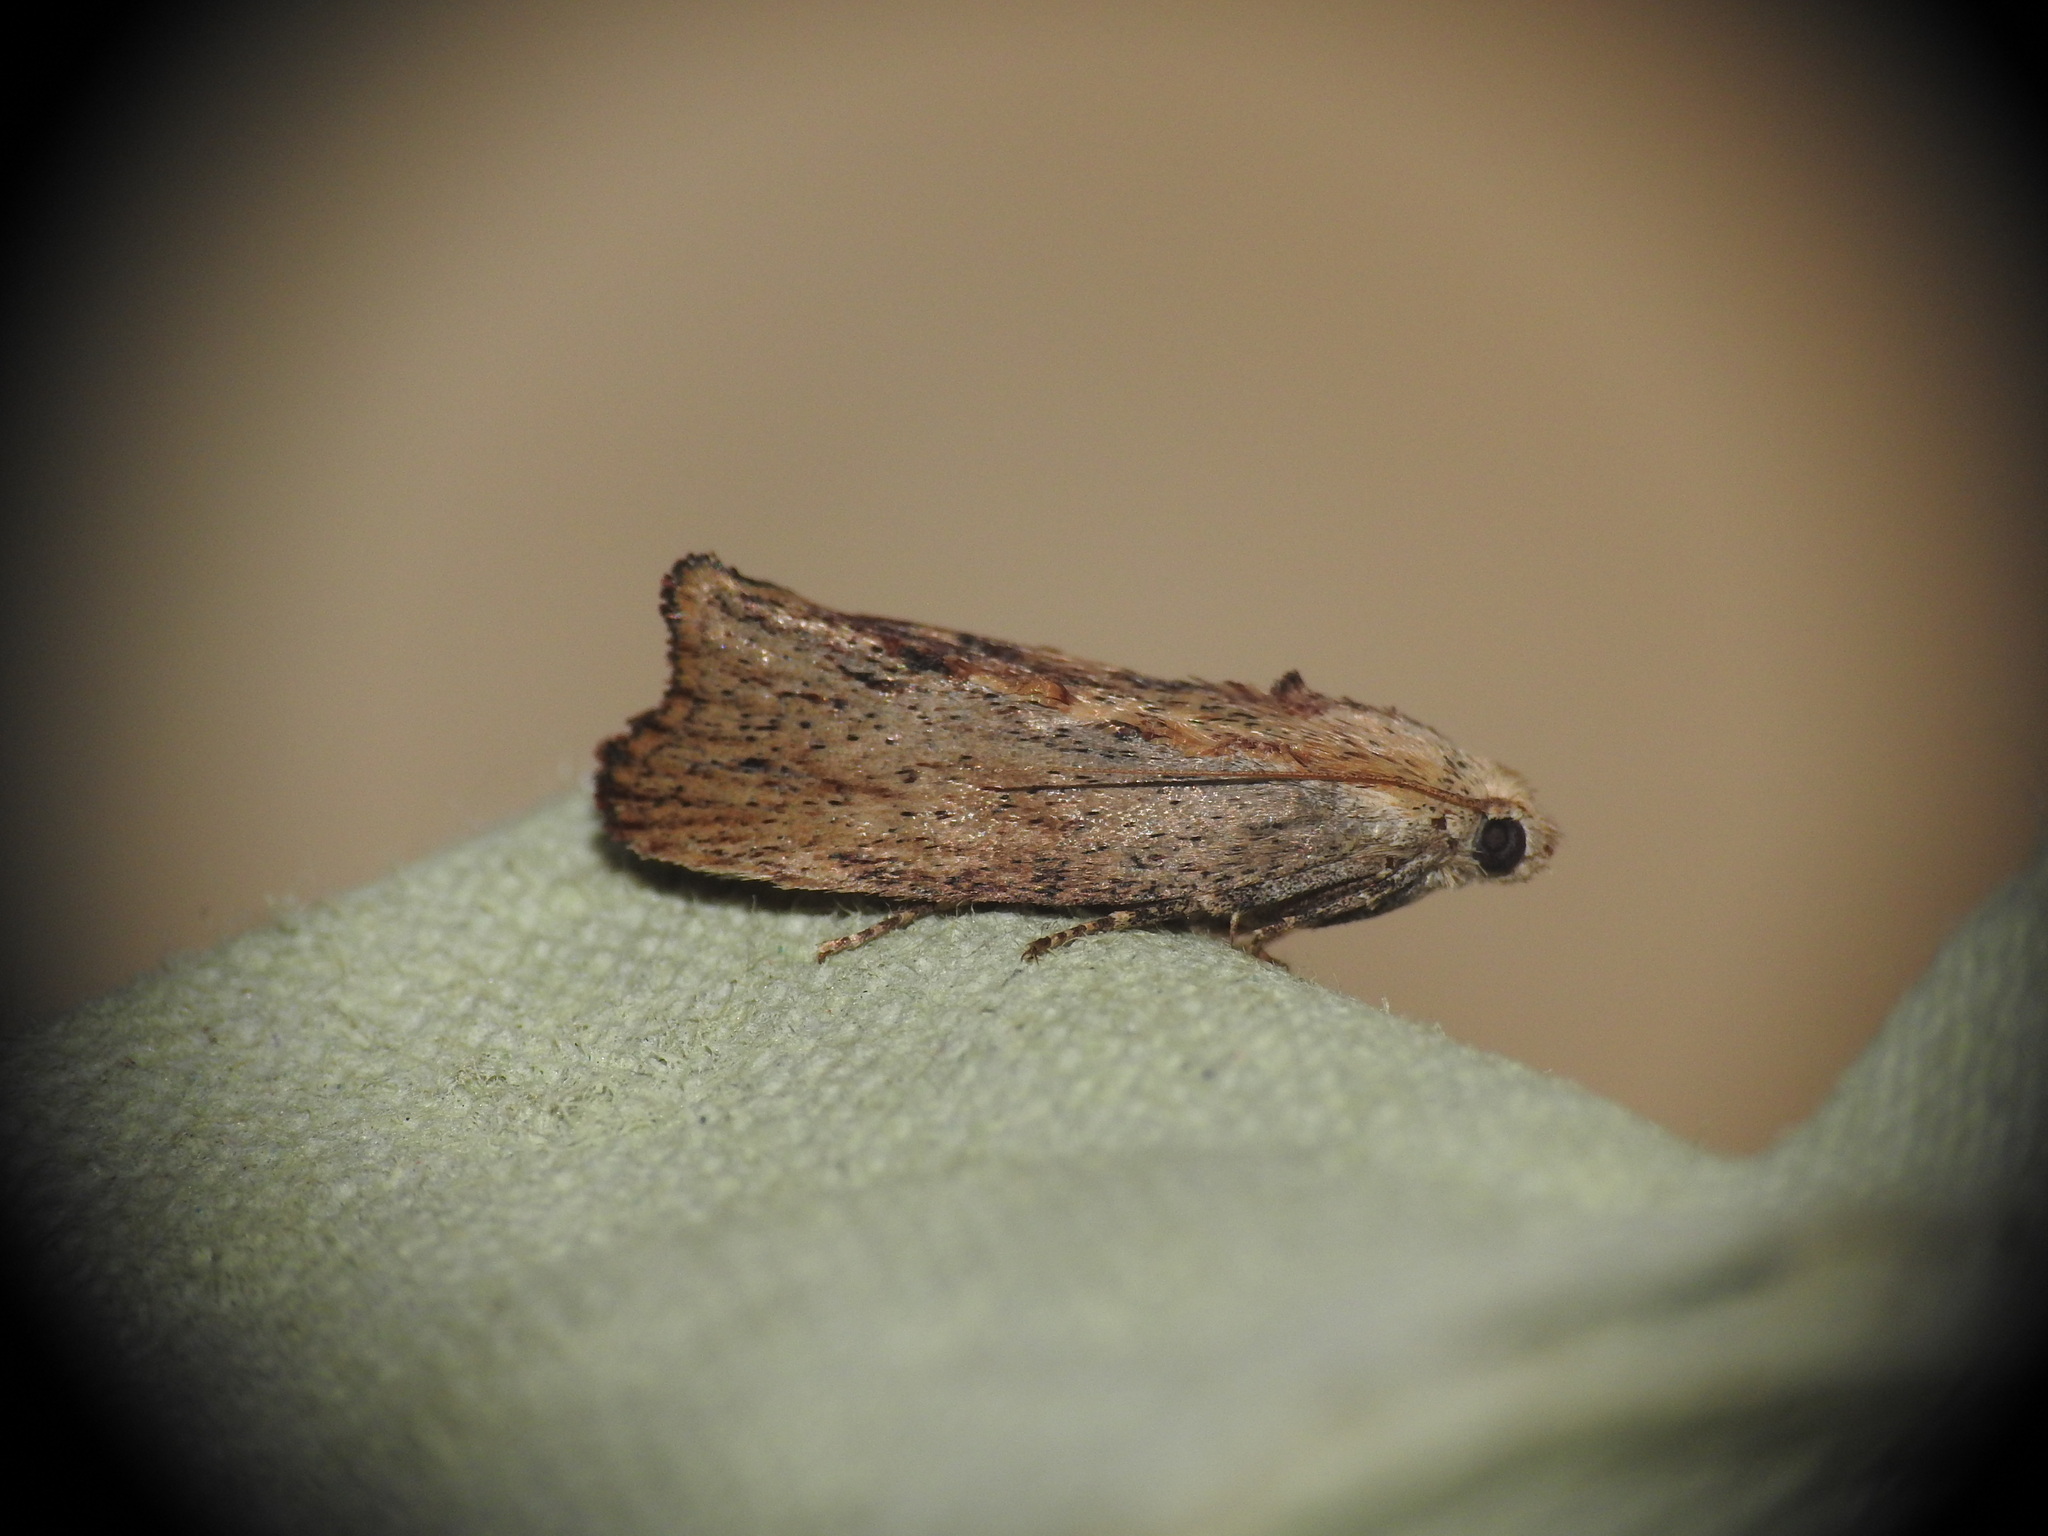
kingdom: Animalia
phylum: Arthropoda
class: Insecta
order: Lepidoptera
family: Pyralidae
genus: Galleria
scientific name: Galleria mellonella
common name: Greater wax moth
